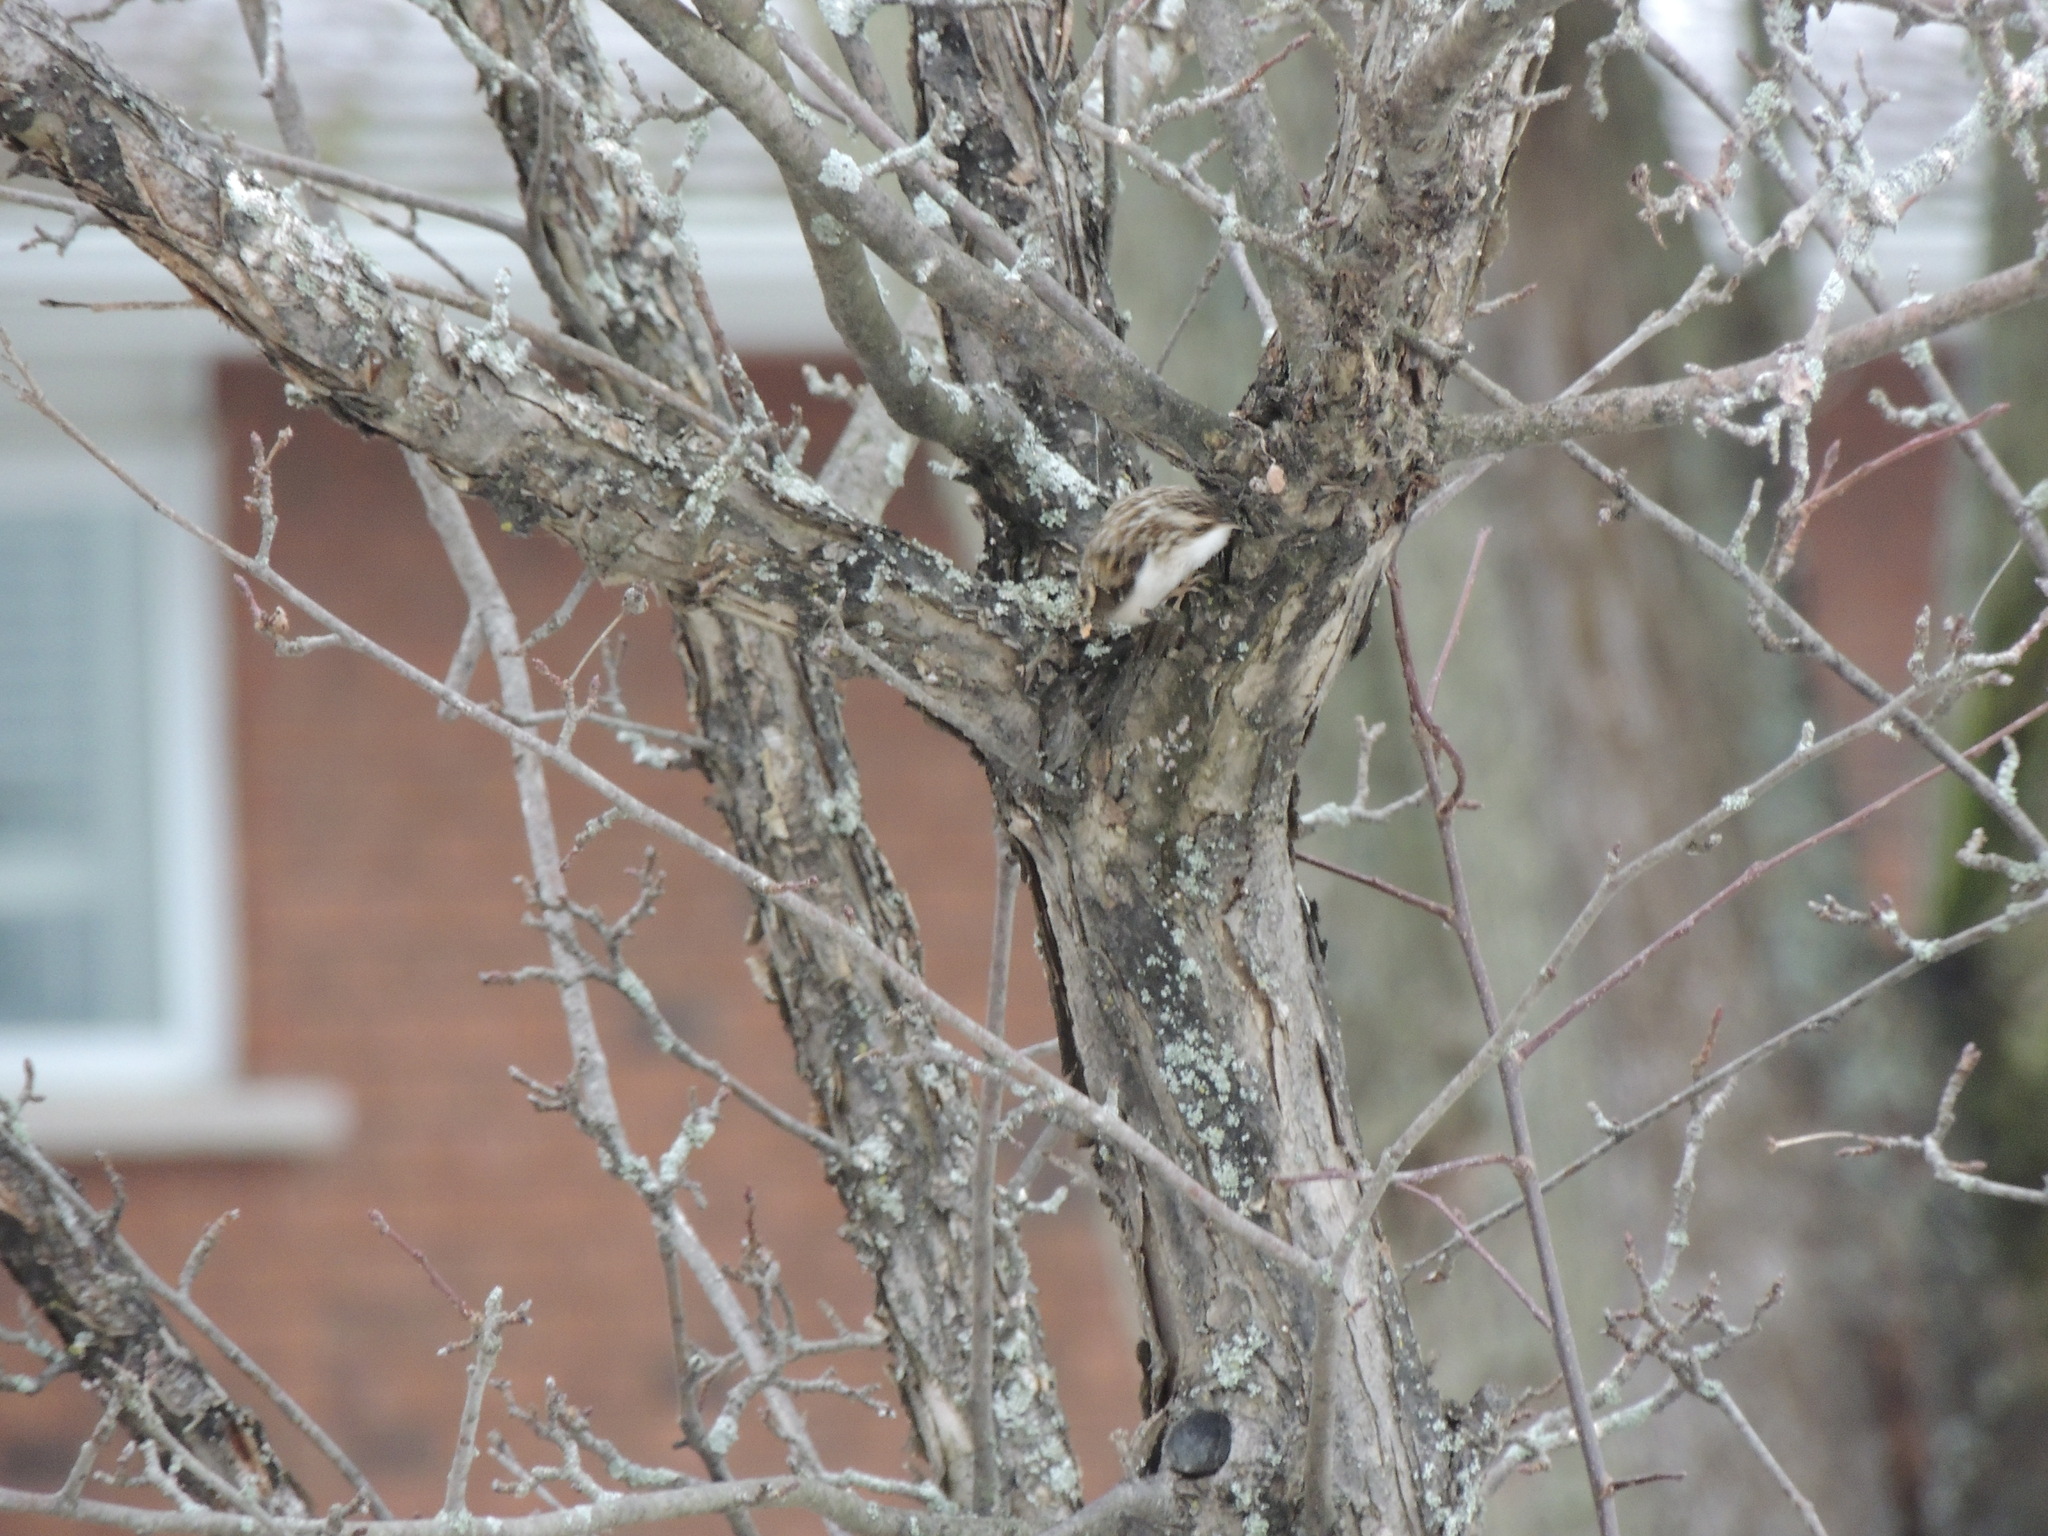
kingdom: Animalia
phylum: Chordata
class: Aves
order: Passeriformes
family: Certhiidae
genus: Certhia
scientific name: Certhia americana
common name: Brown creeper
